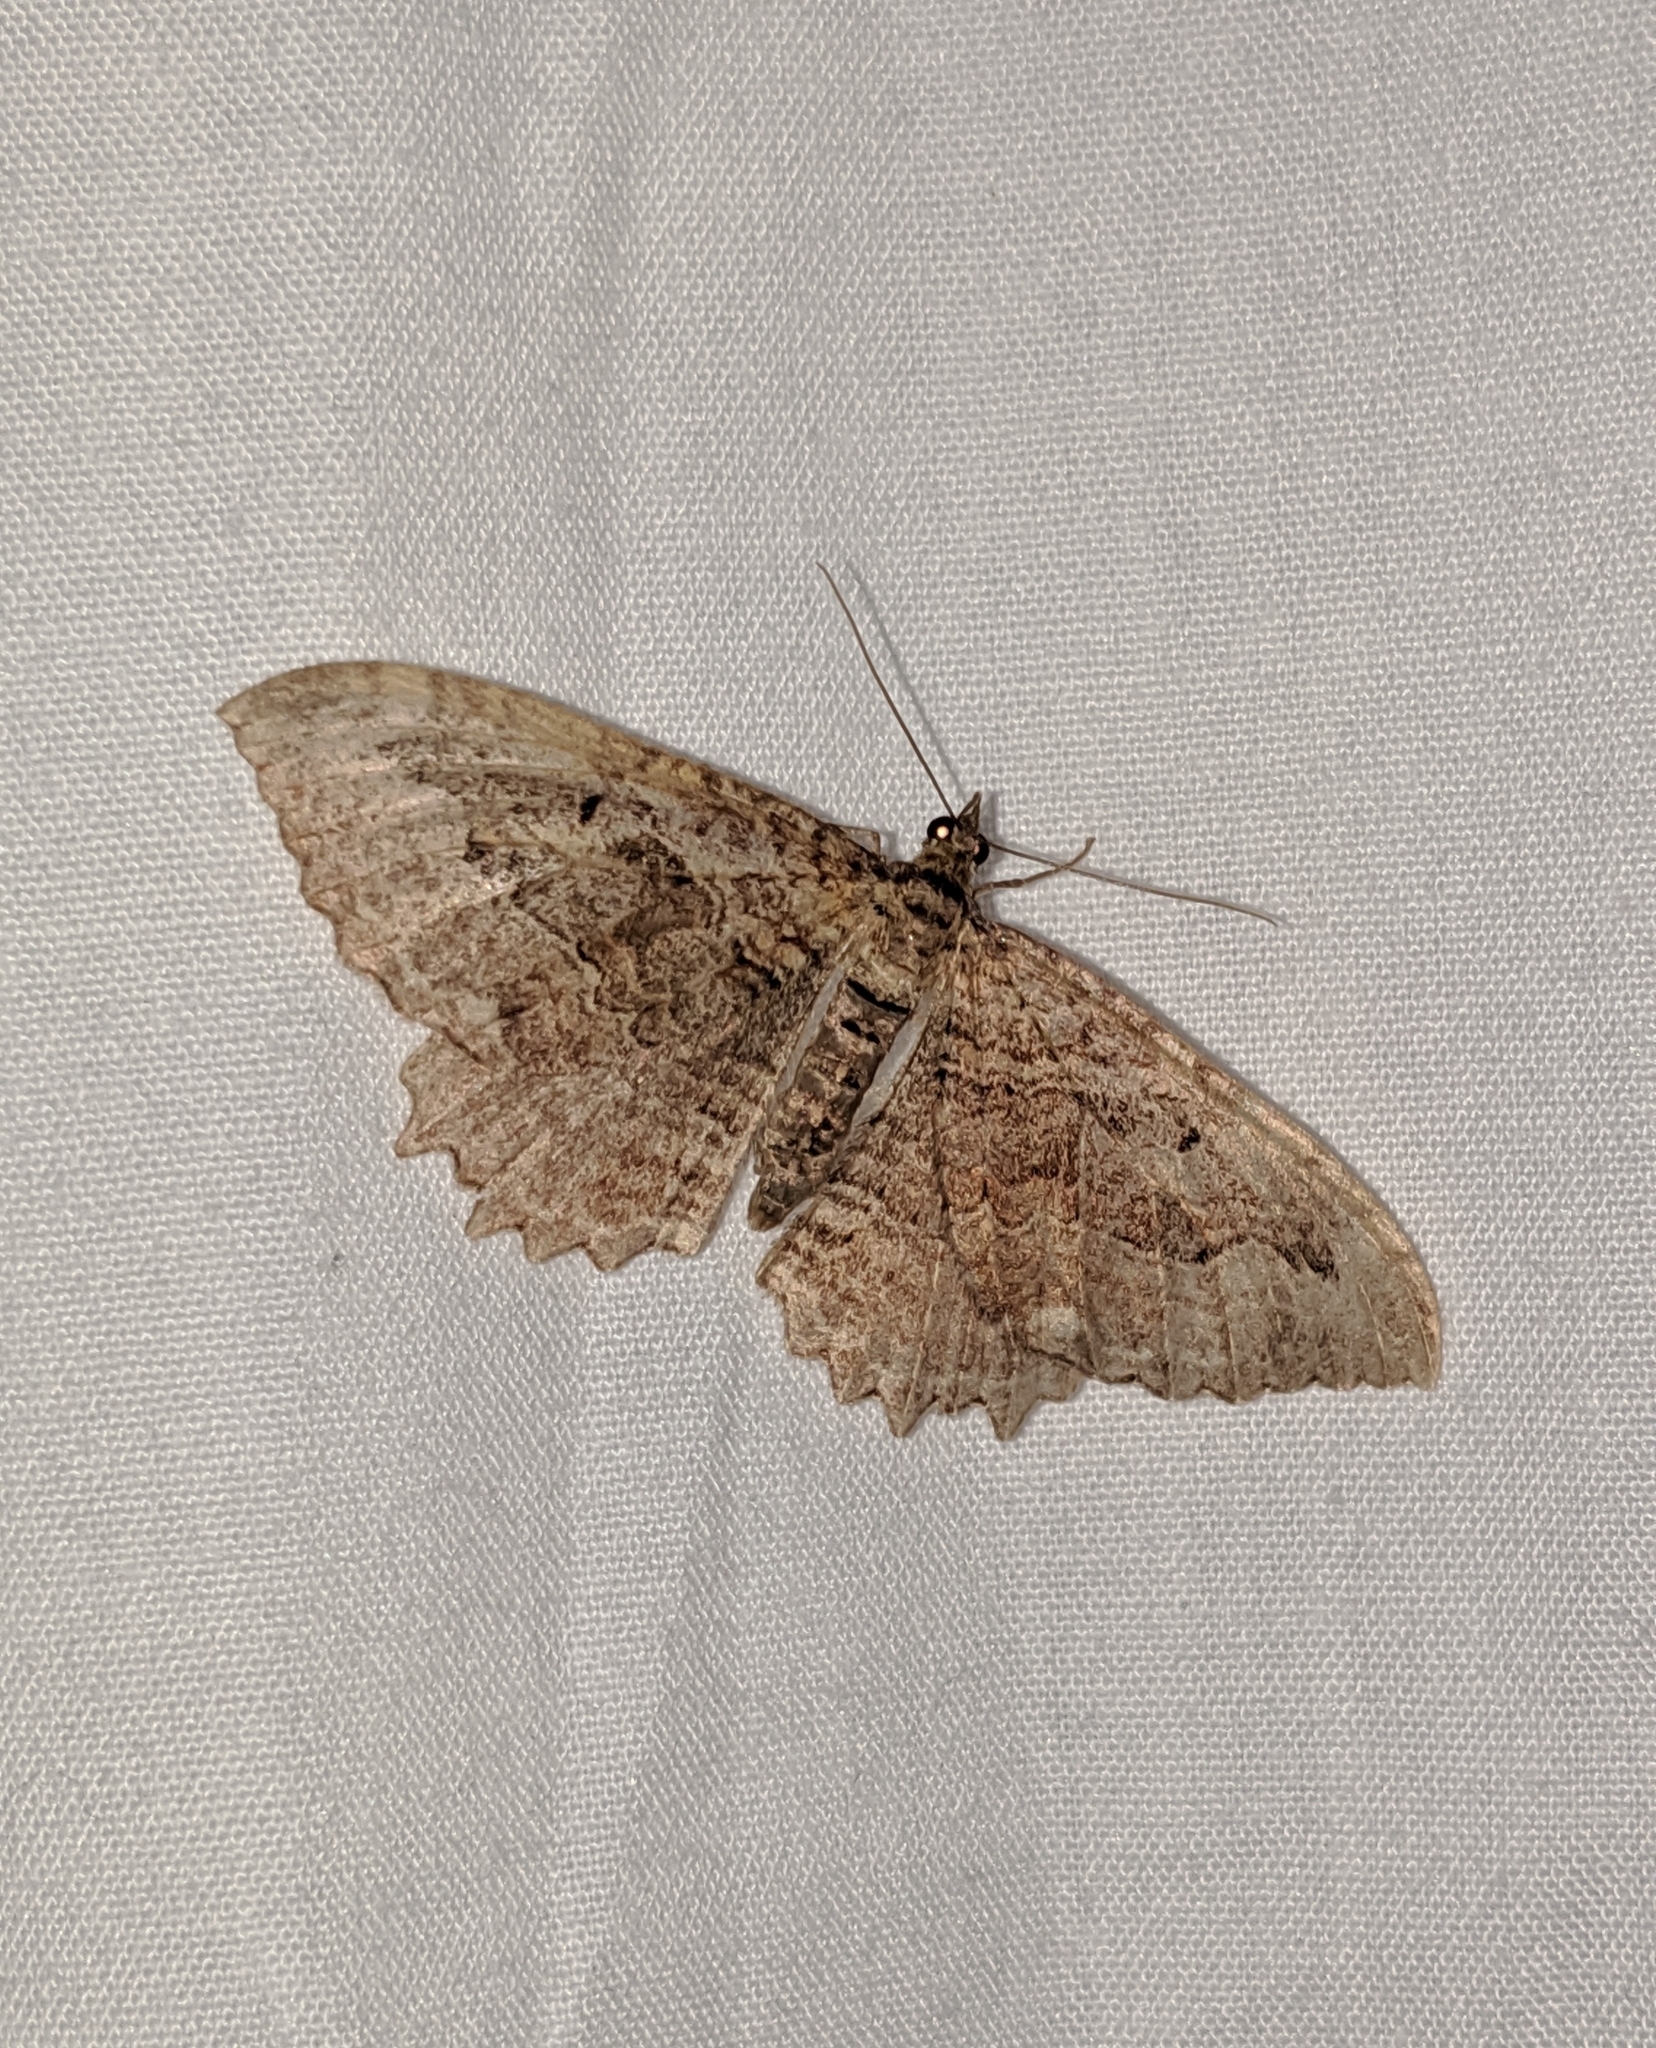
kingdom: Animalia
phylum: Arthropoda
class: Insecta
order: Lepidoptera
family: Geometridae
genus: Rheumaptera
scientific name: Rheumaptera
